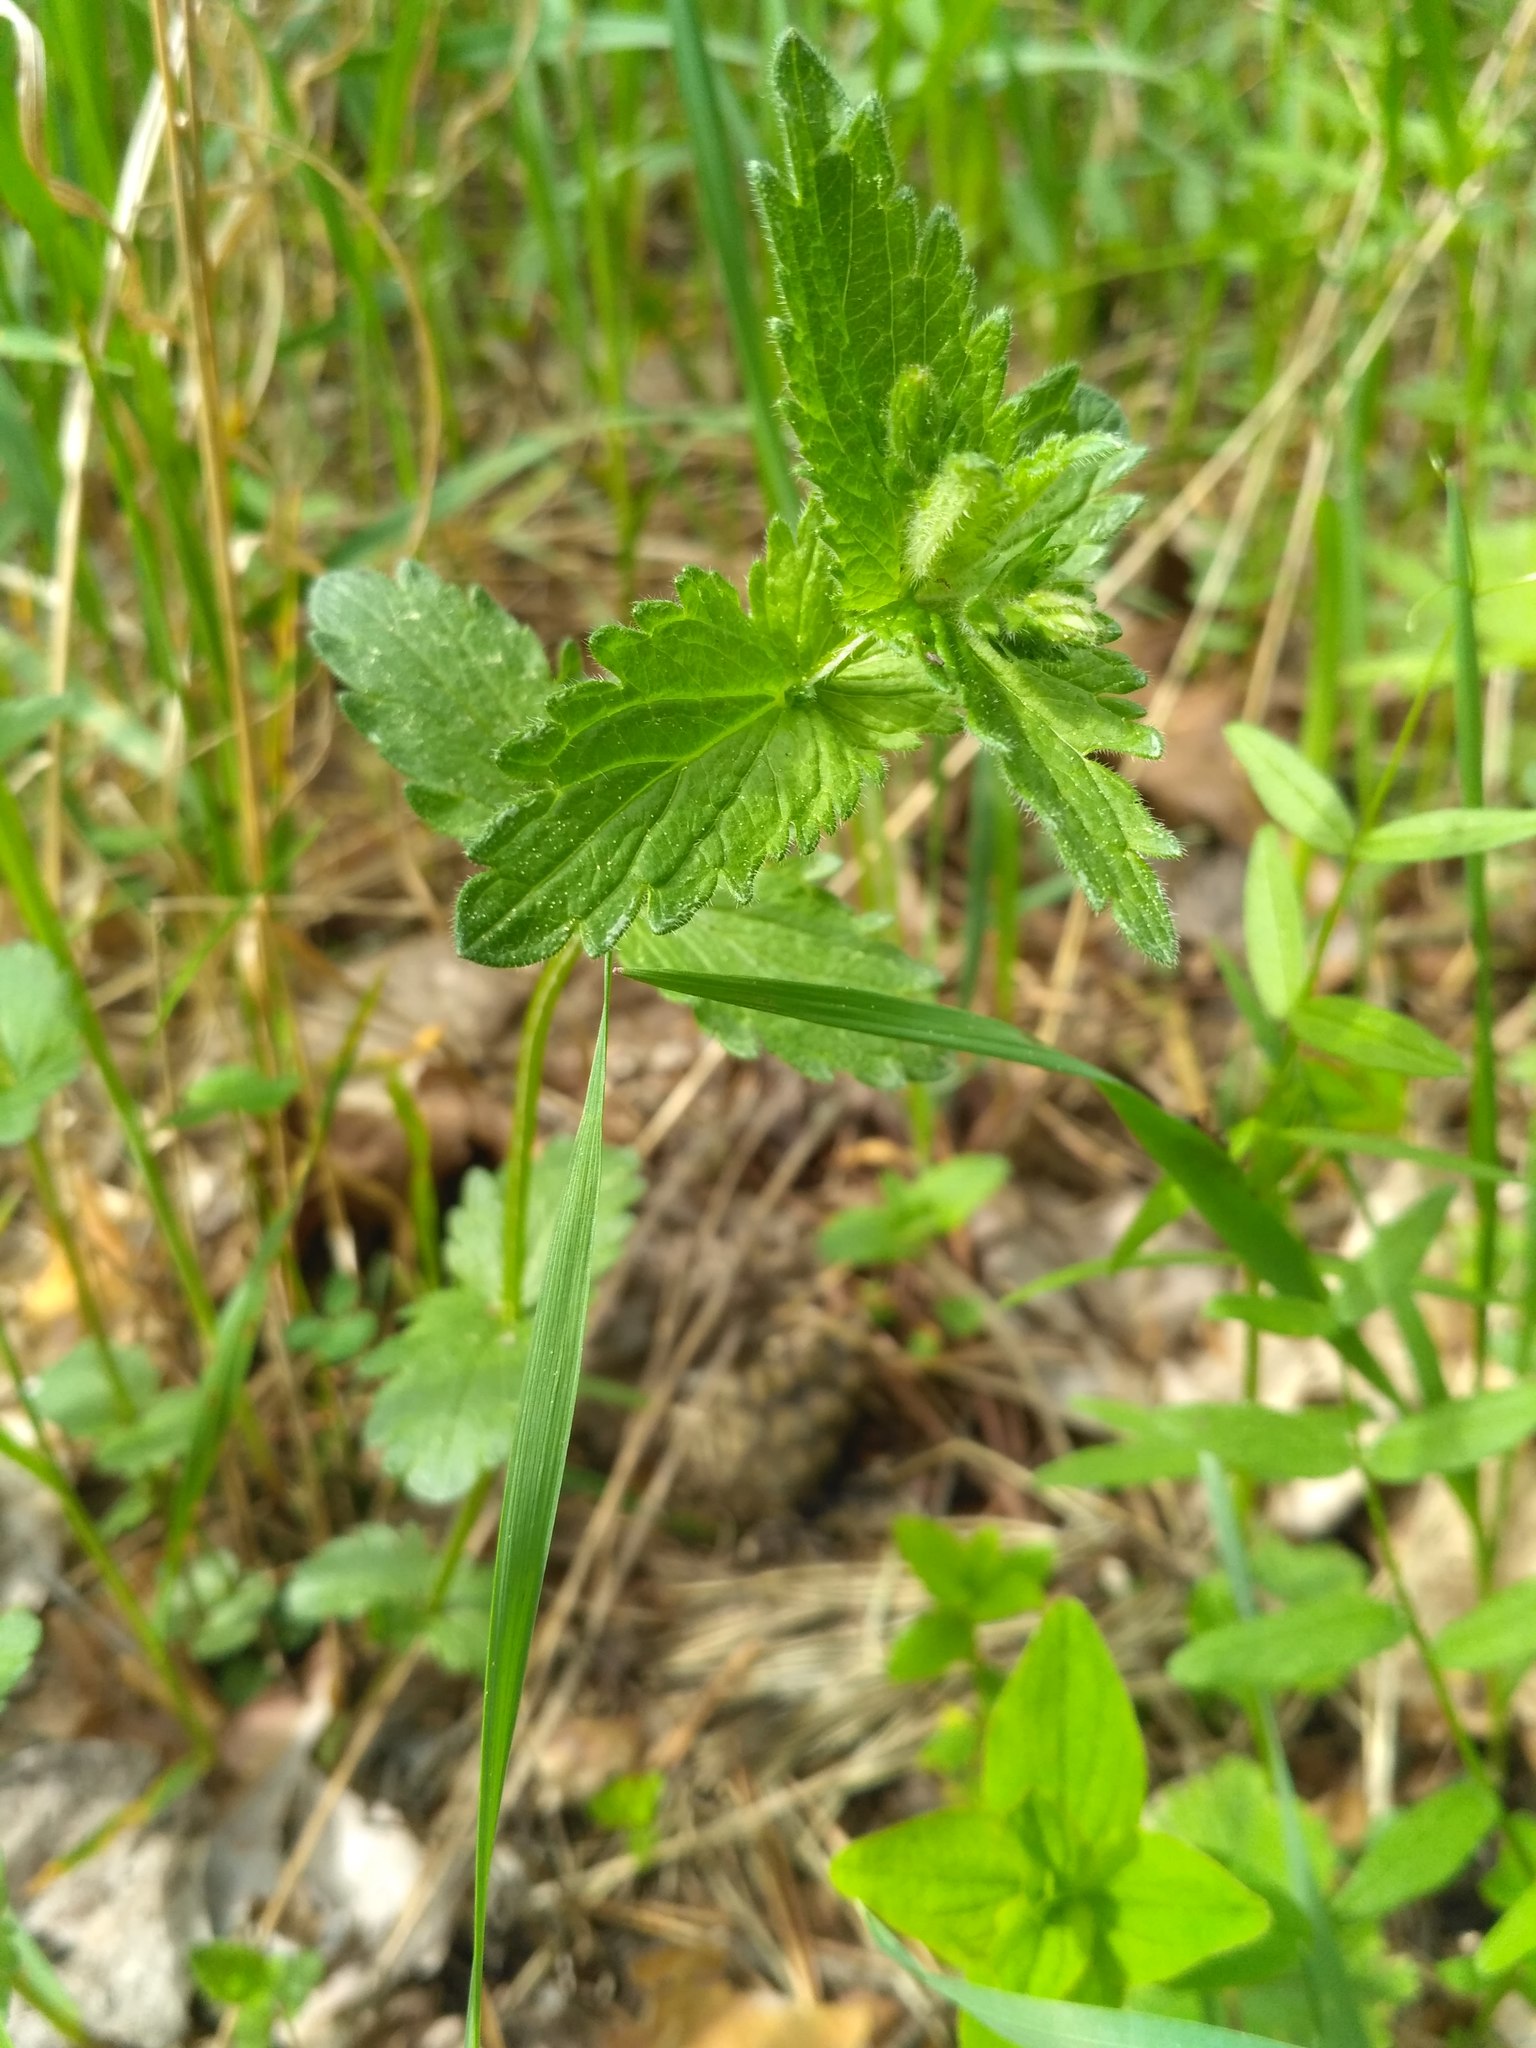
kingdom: Plantae
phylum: Tracheophyta
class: Magnoliopsida
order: Lamiales
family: Plantaginaceae
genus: Veronica
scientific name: Veronica chamaedrys
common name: Germander speedwell
